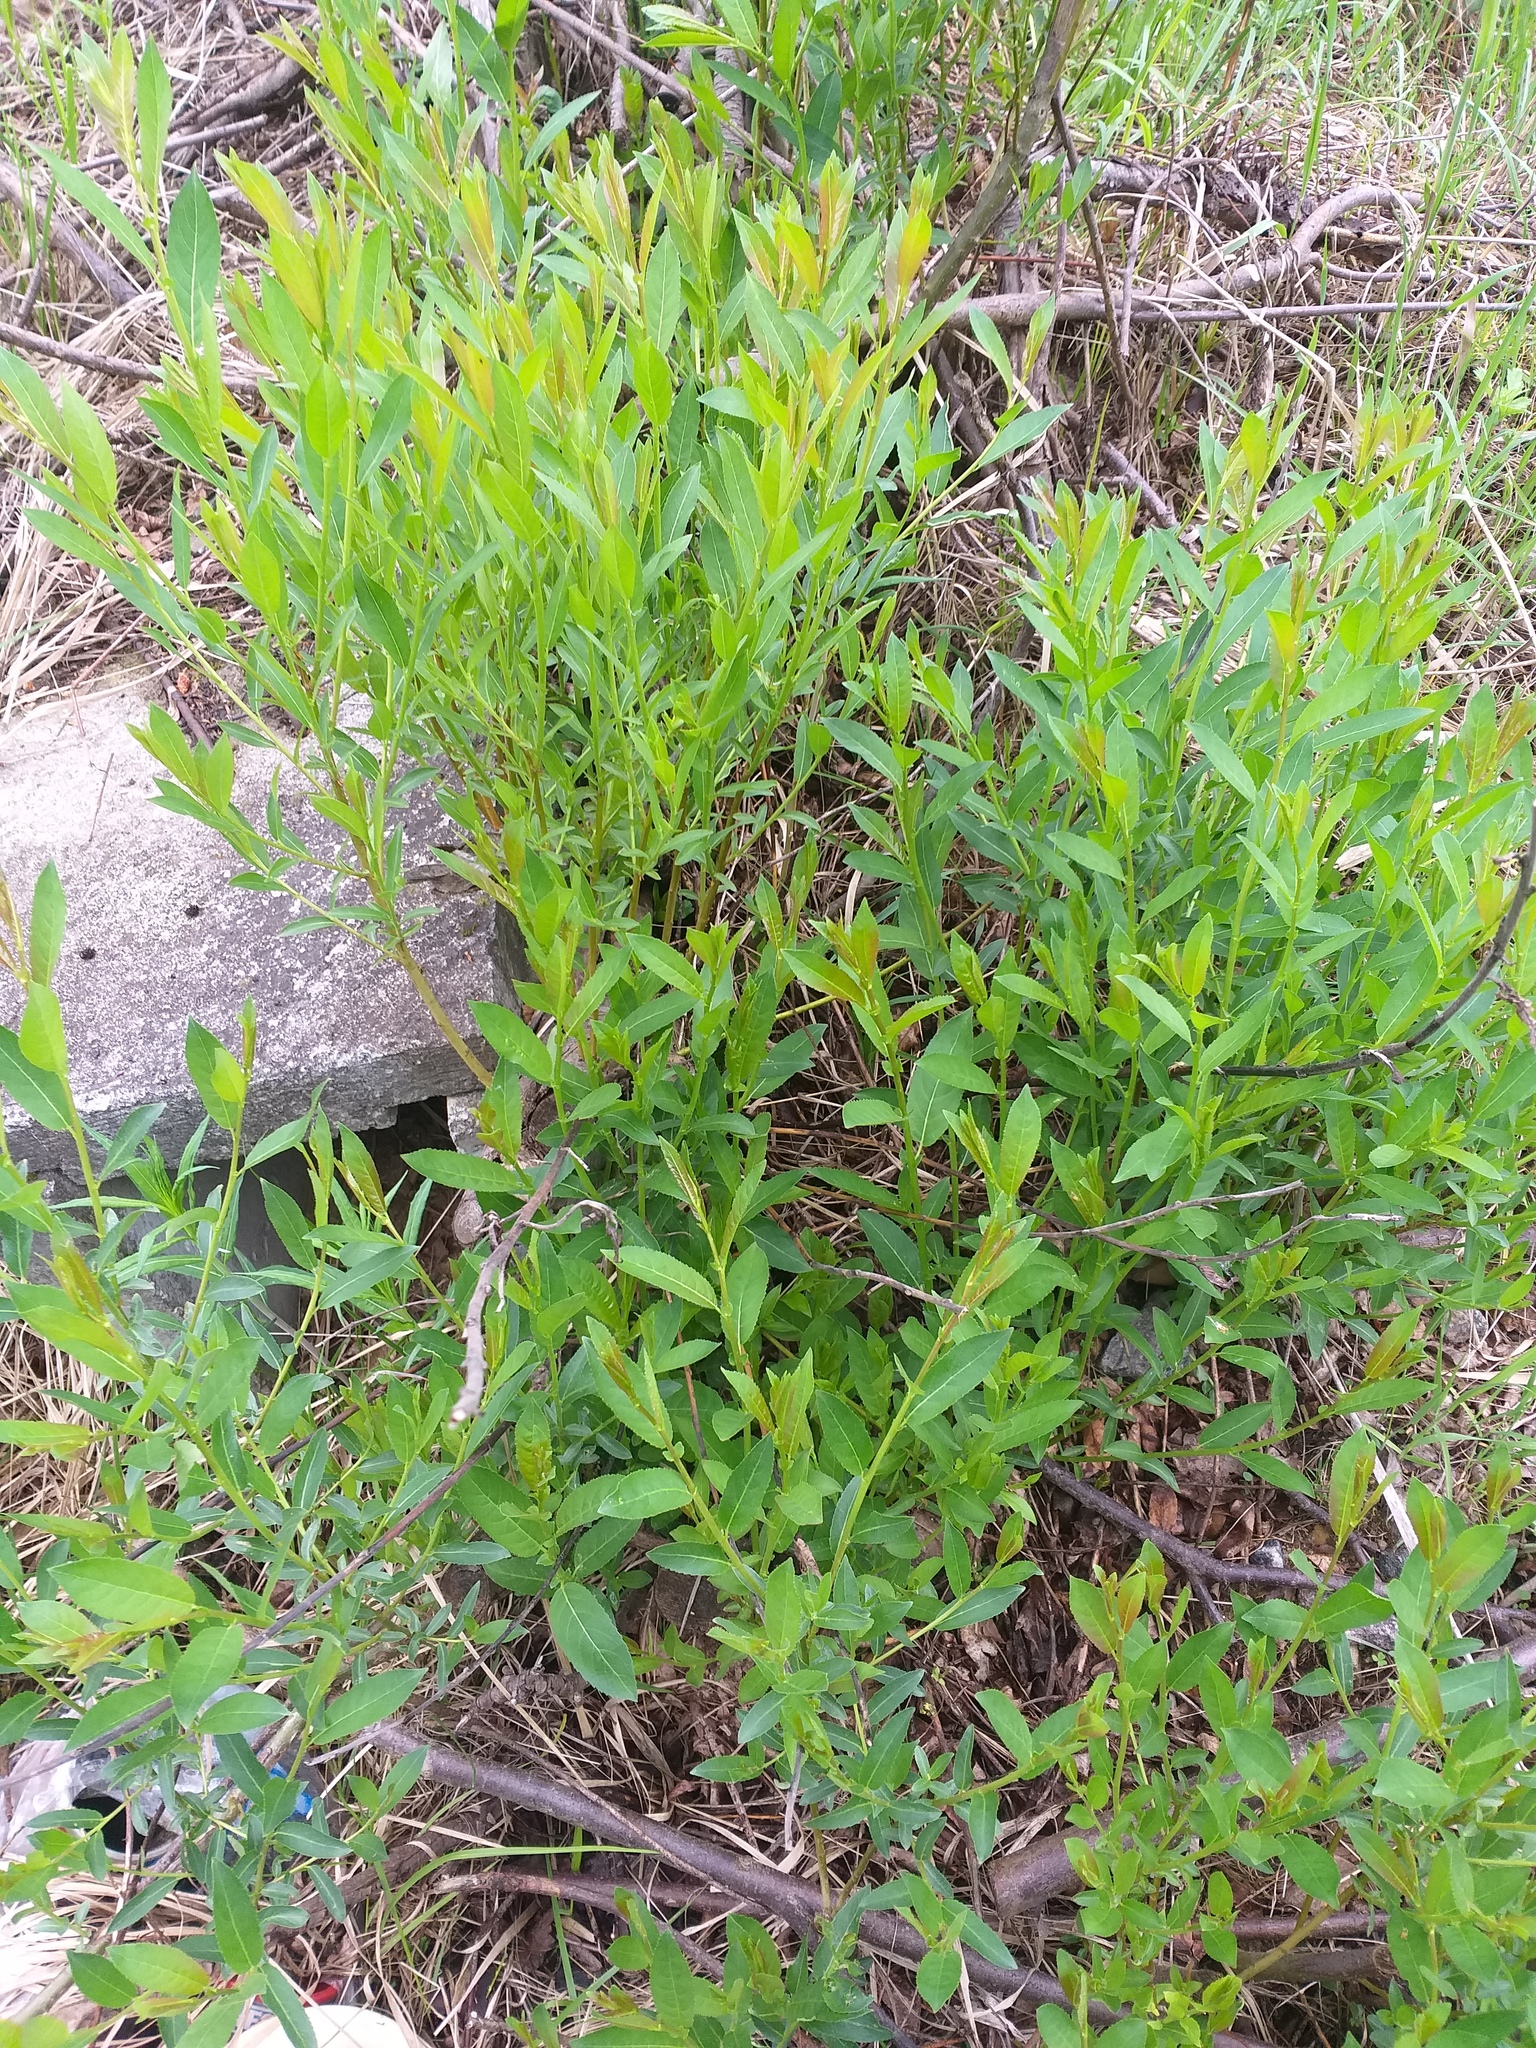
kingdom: Plantae
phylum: Tracheophyta
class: Magnoliopsida
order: Malpighiales
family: Salicaceae
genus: Salix
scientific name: Salix triandra
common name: Almond willow
